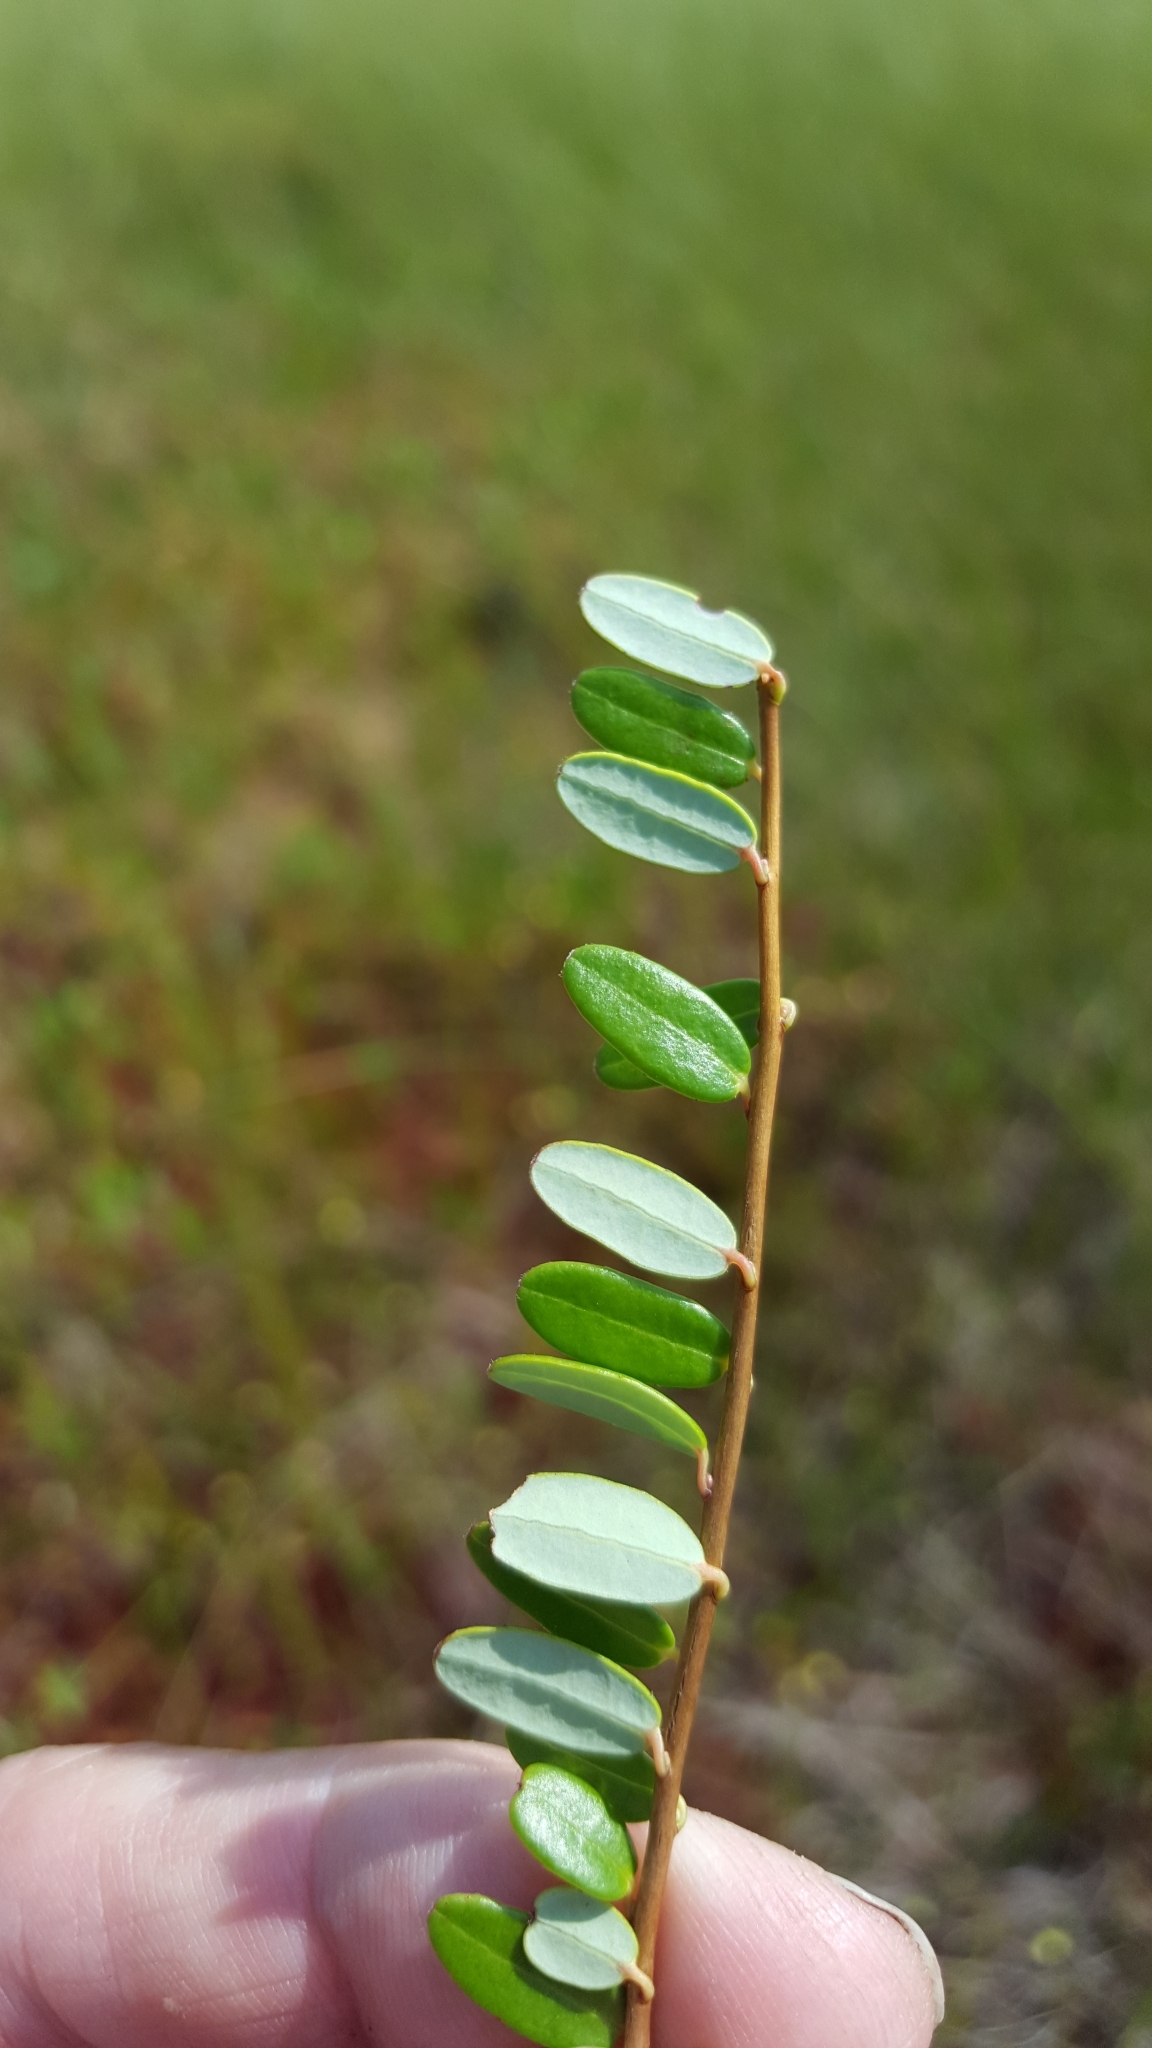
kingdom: Plantae
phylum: Tracheophyta
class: Magnoliopsida
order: Ericales
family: Ericaceae
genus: Vaccinium
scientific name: Vaccinium macrocarpon
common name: American cranberry
